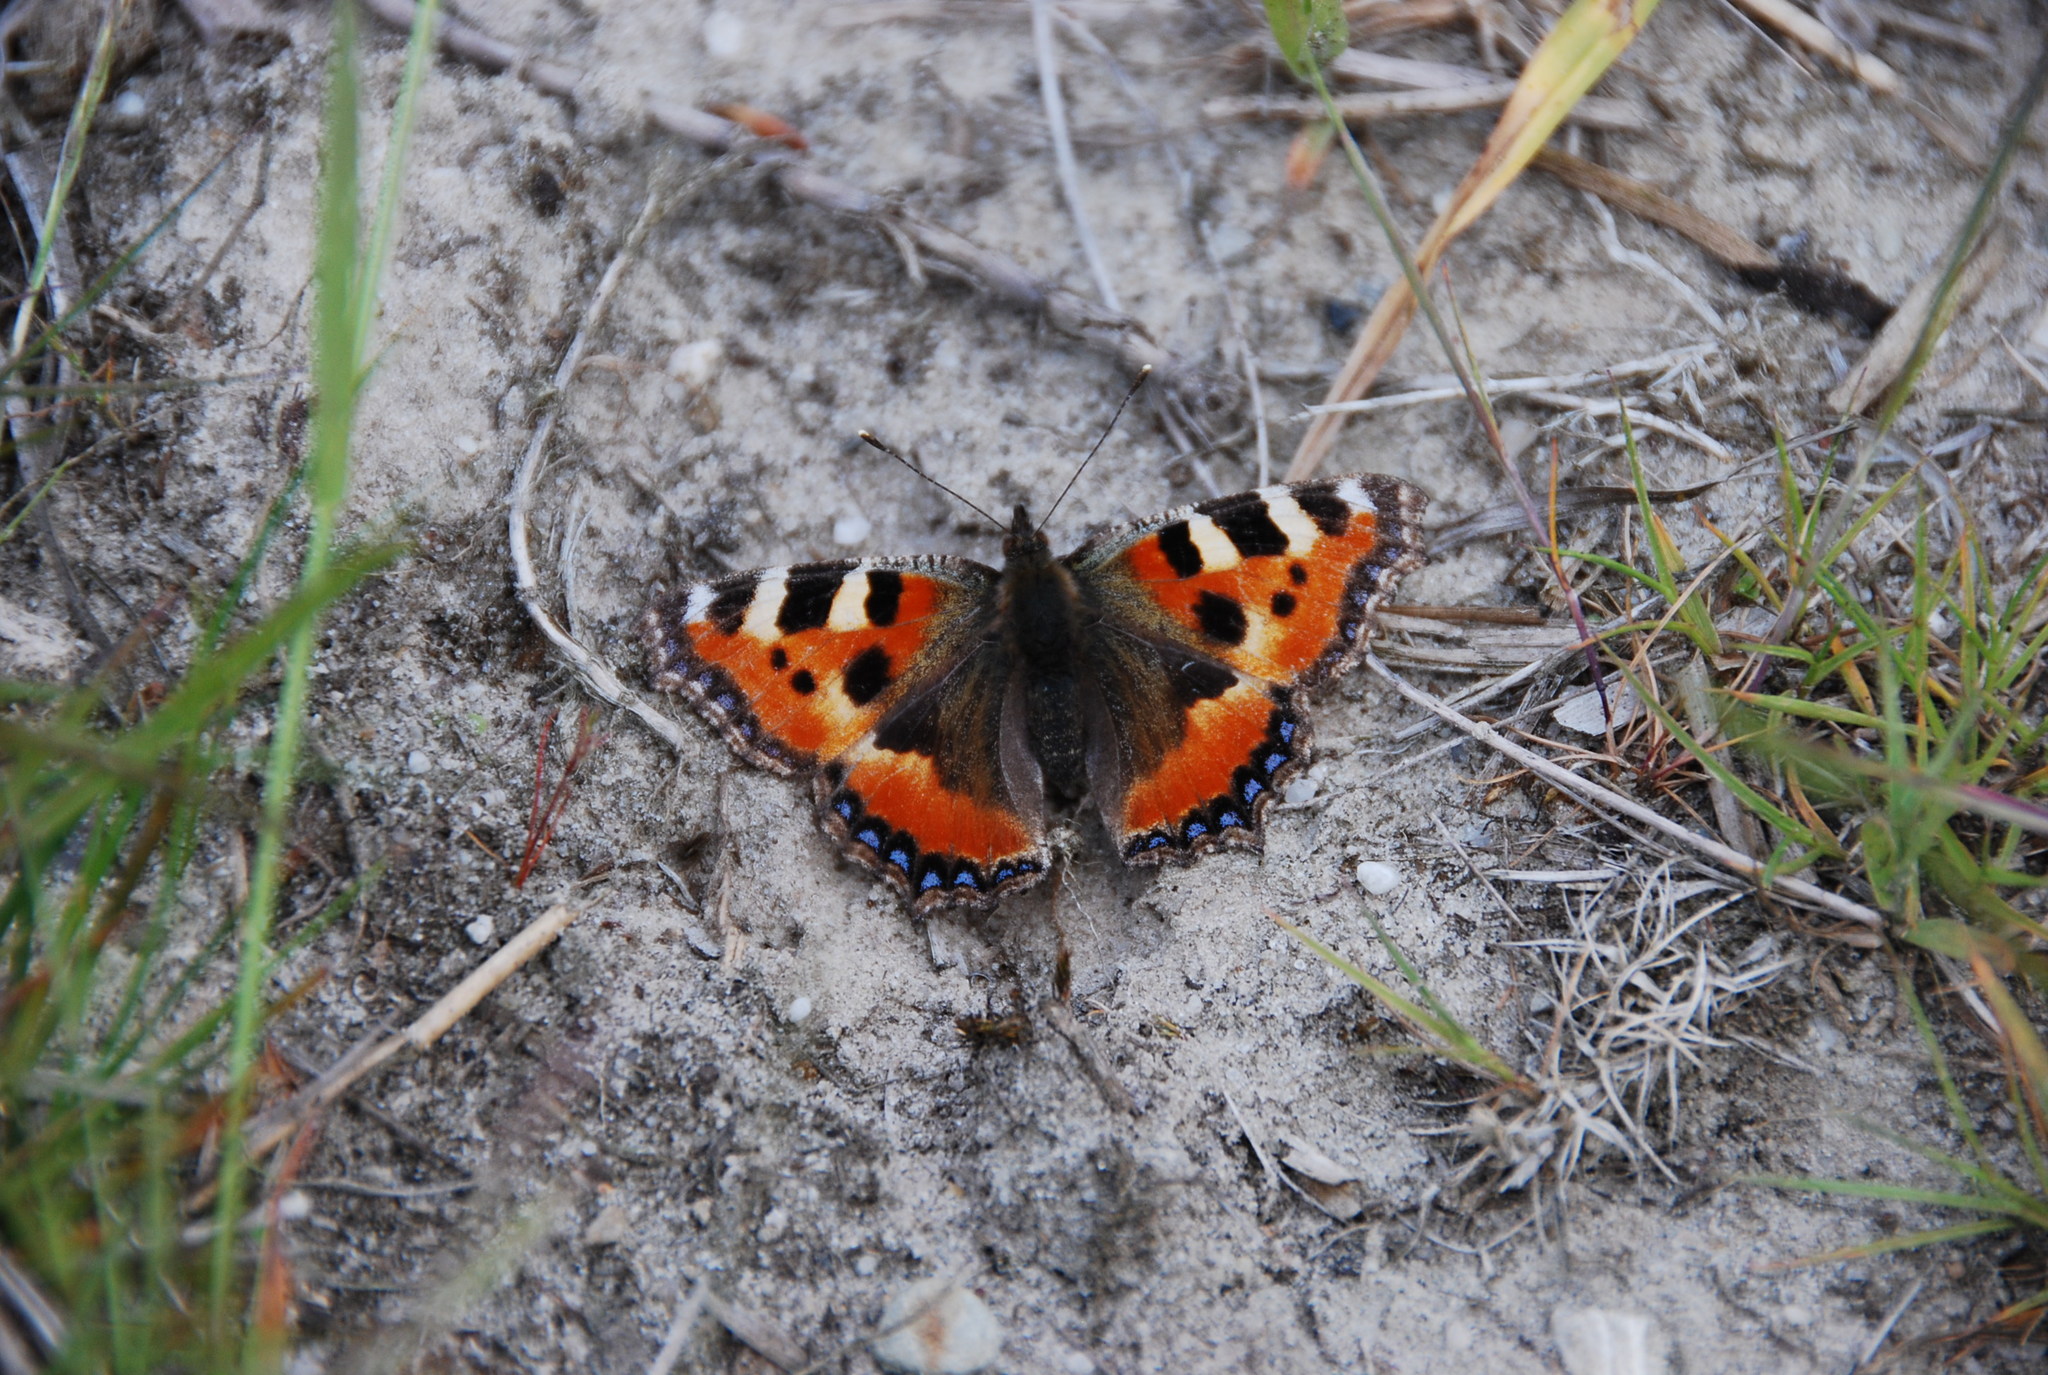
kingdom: Animalia
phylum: Arthropoda
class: Insecta
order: Lepidoptera
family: Nymphalidae
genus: Aglais
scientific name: Aglais urticae
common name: Small tortoiseshell
